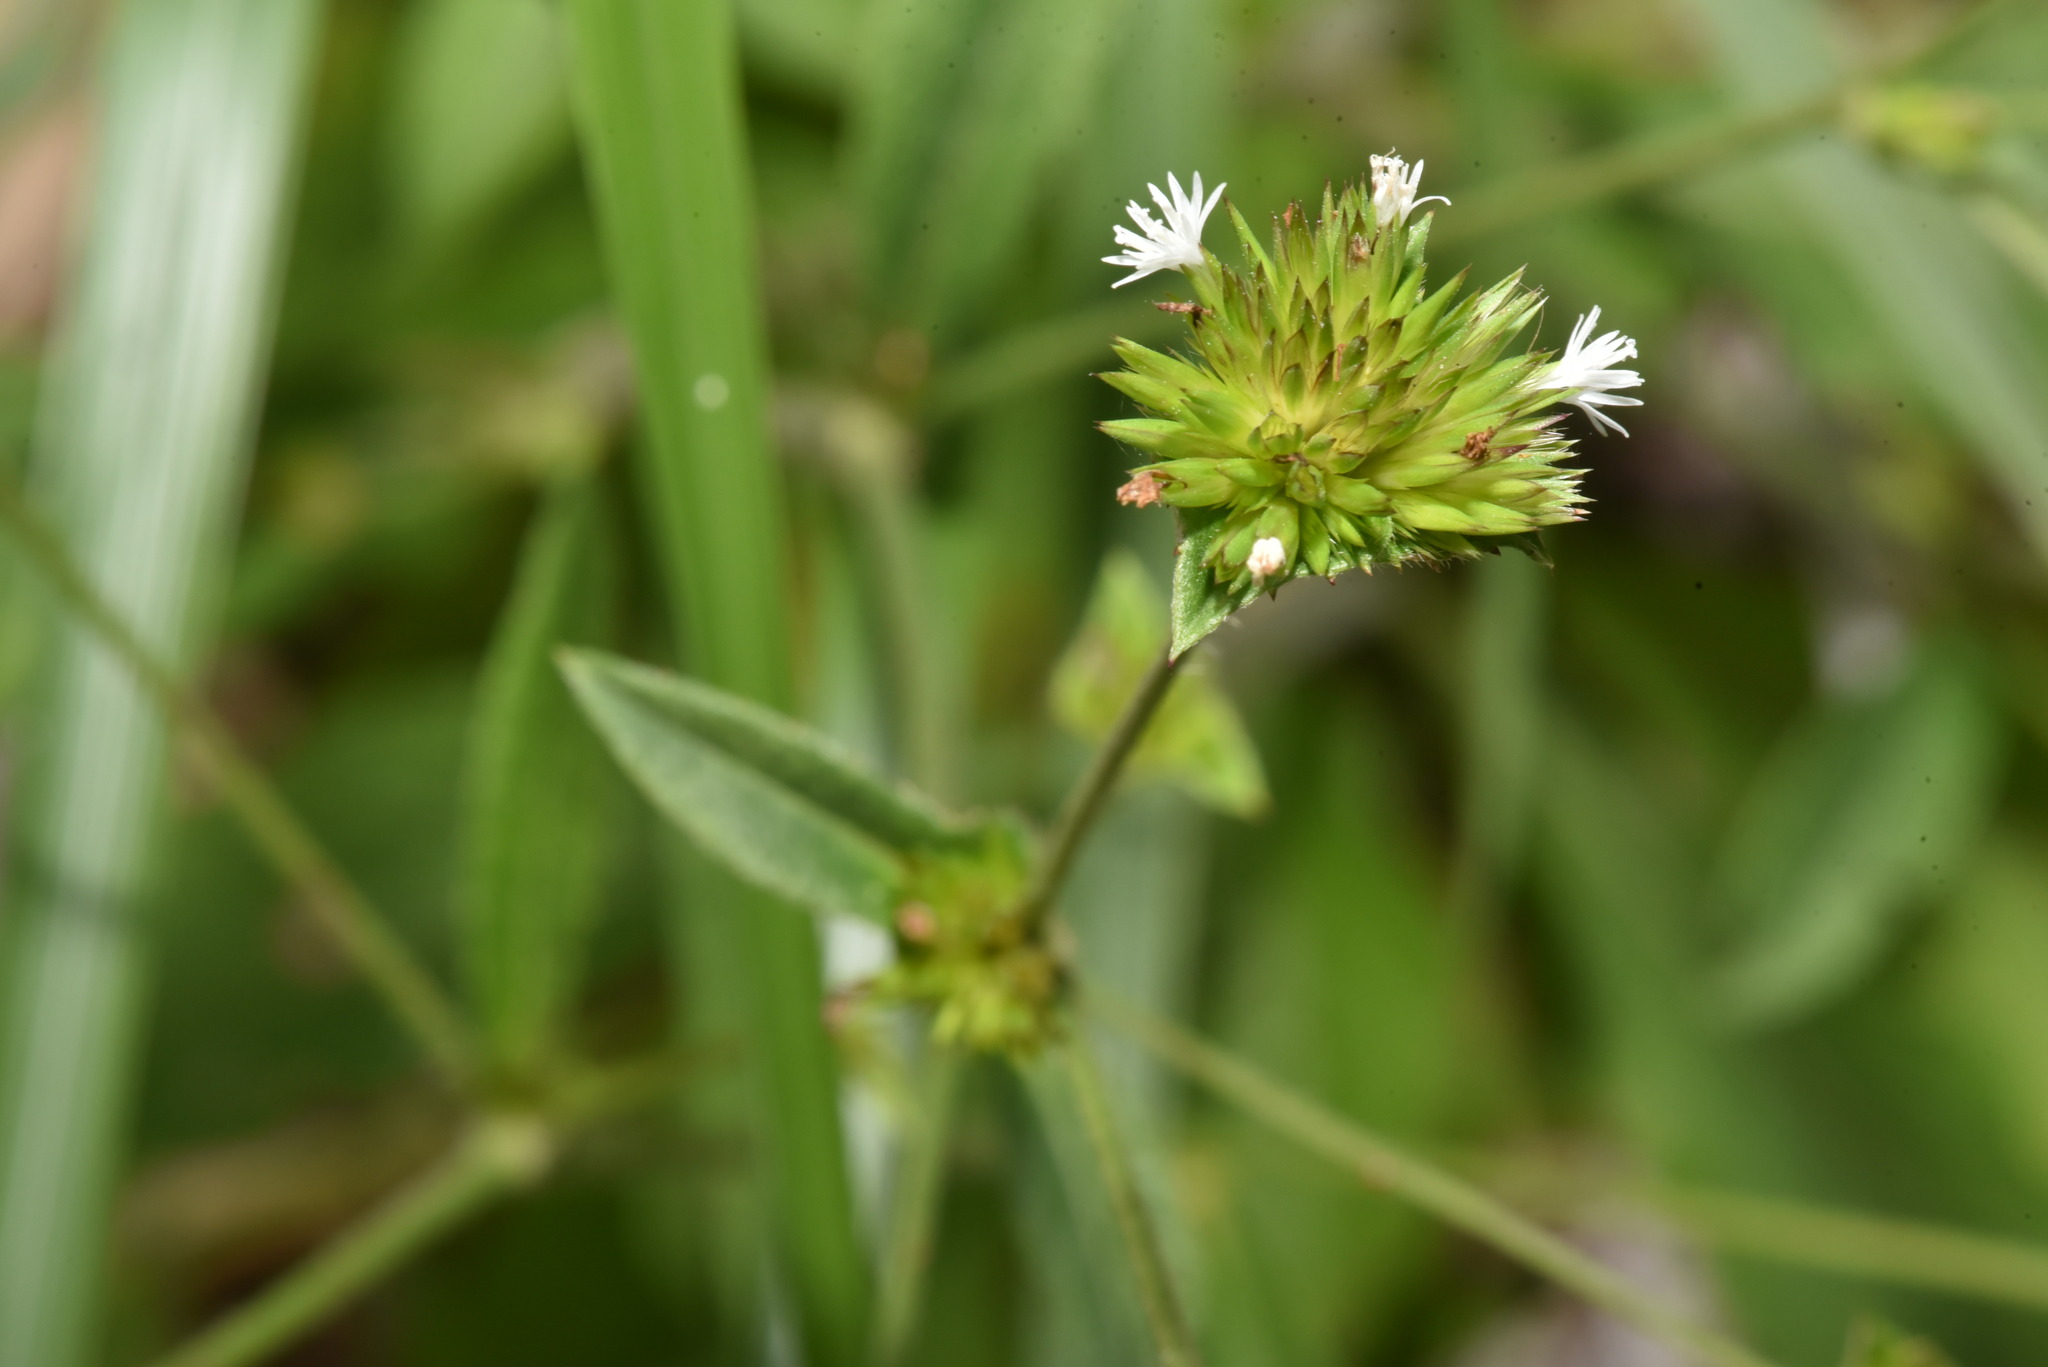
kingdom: Plantae
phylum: Tracheophyta
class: Magnoliopsida
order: Asterales
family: Asteraceae
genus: Elephantopus
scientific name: Elephantopus mollis
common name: Soft elephantsfoot
